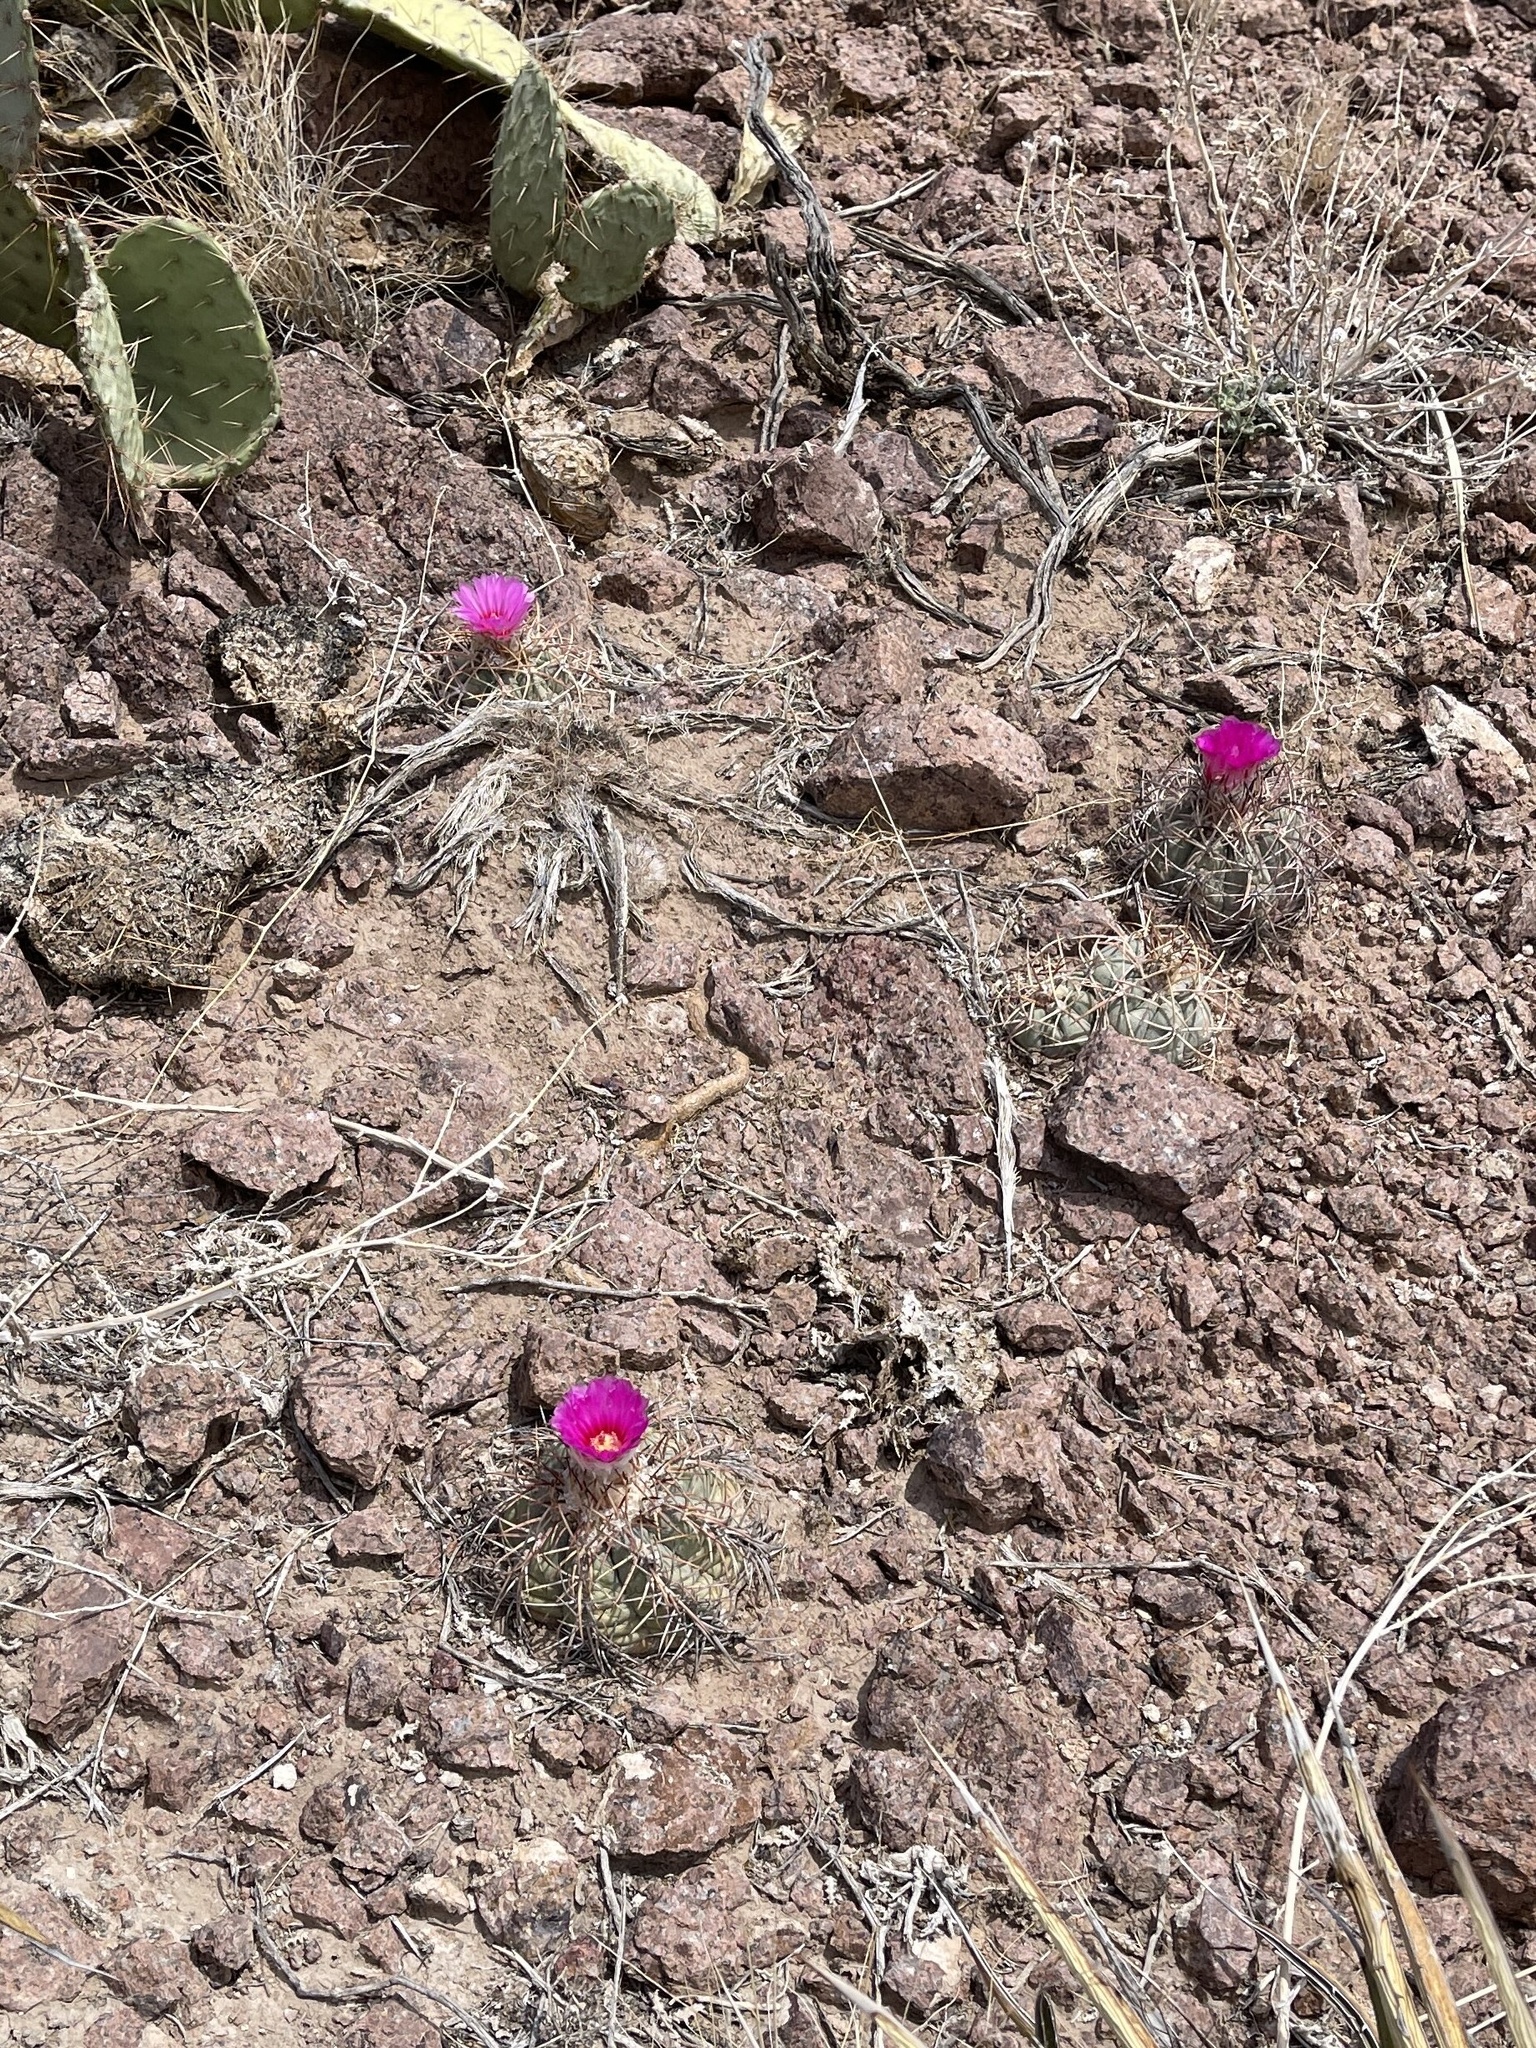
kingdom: Plantae
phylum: Tracheophyta
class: Magnoliopsida
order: Caryophyllales
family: Cactaceae
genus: Echinocactus
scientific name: Echinocactus horizonthalonius
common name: Devilshead
